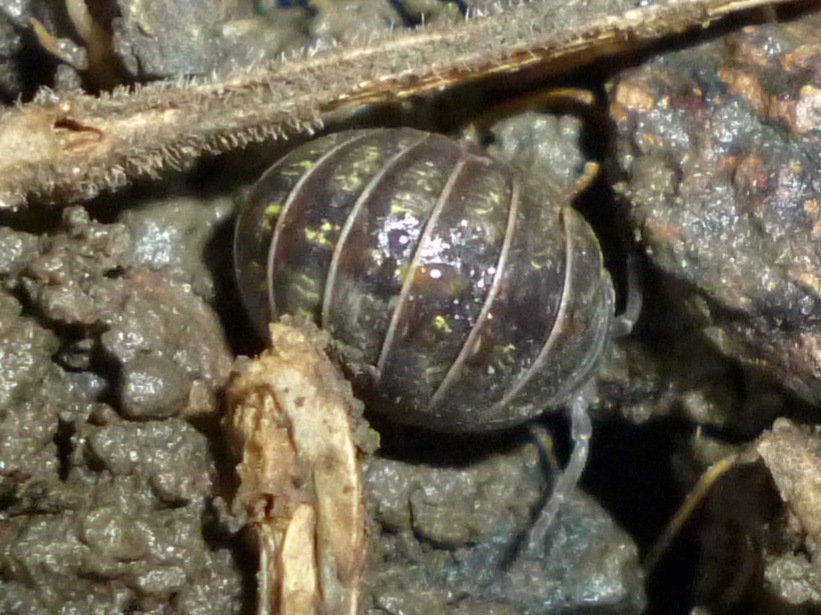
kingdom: Animalia
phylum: Arthropoda
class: Malacostraca
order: Isopoda
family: Armadillidiidae
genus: Armadillidium
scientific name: Armadillidium vulgare
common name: Common pill woodlouse
